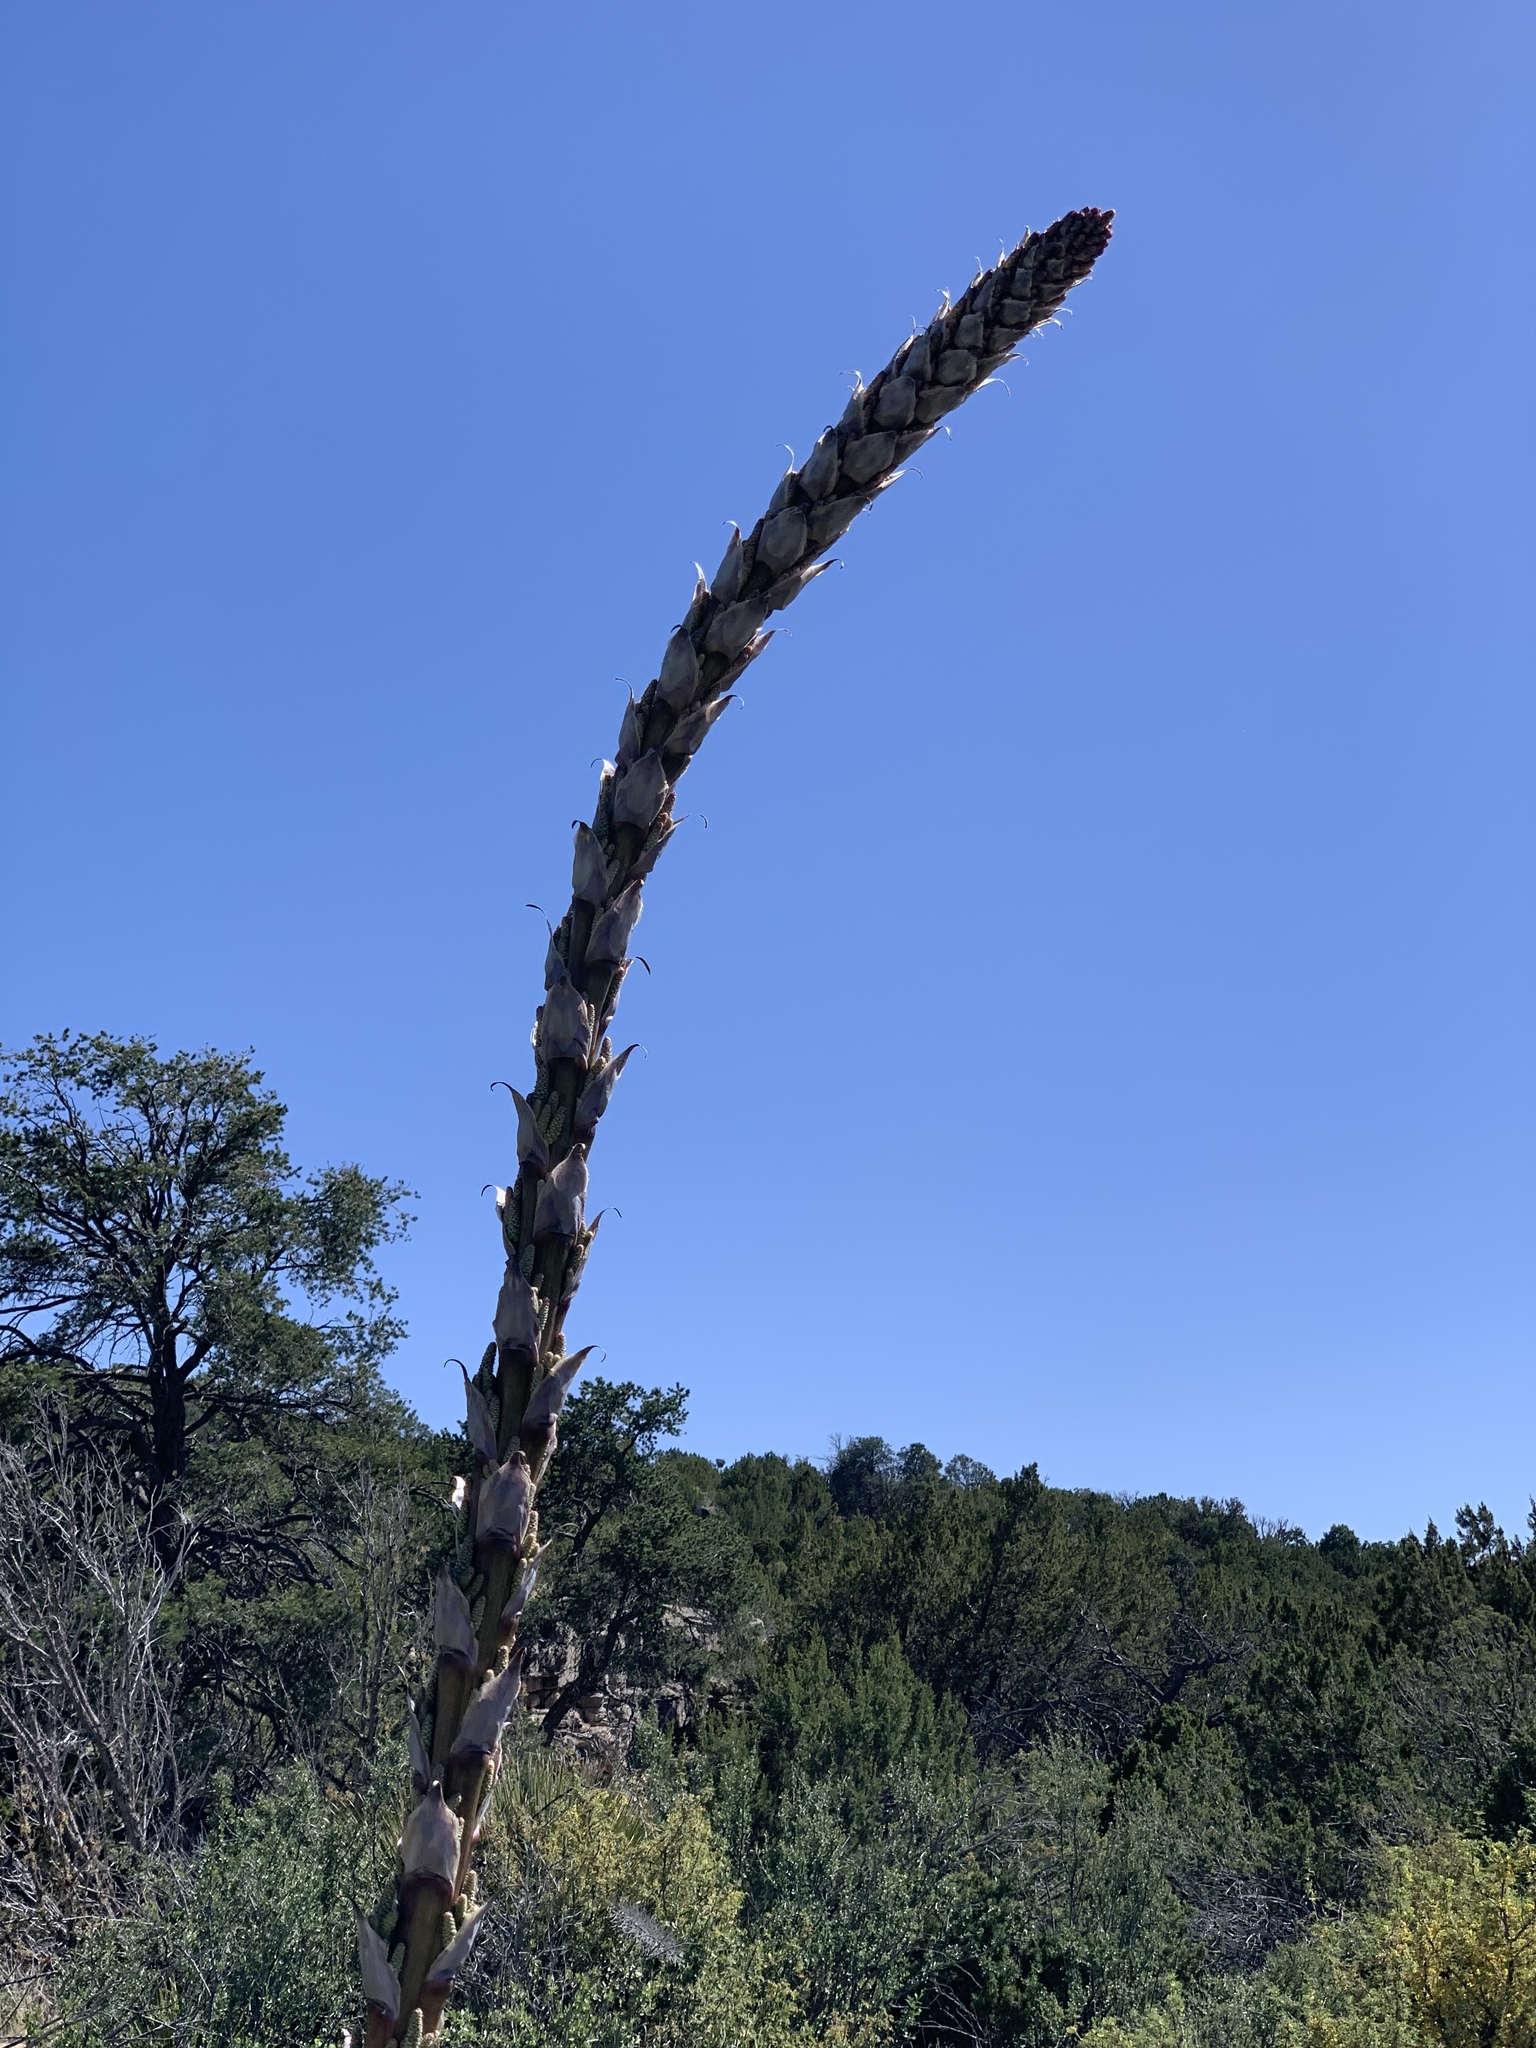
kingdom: Plantae
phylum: Tracheophyta
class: Liliopsida
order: Asparagales
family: Asparagaceae
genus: Dasylirion
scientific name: Dasylirion wheeleri
